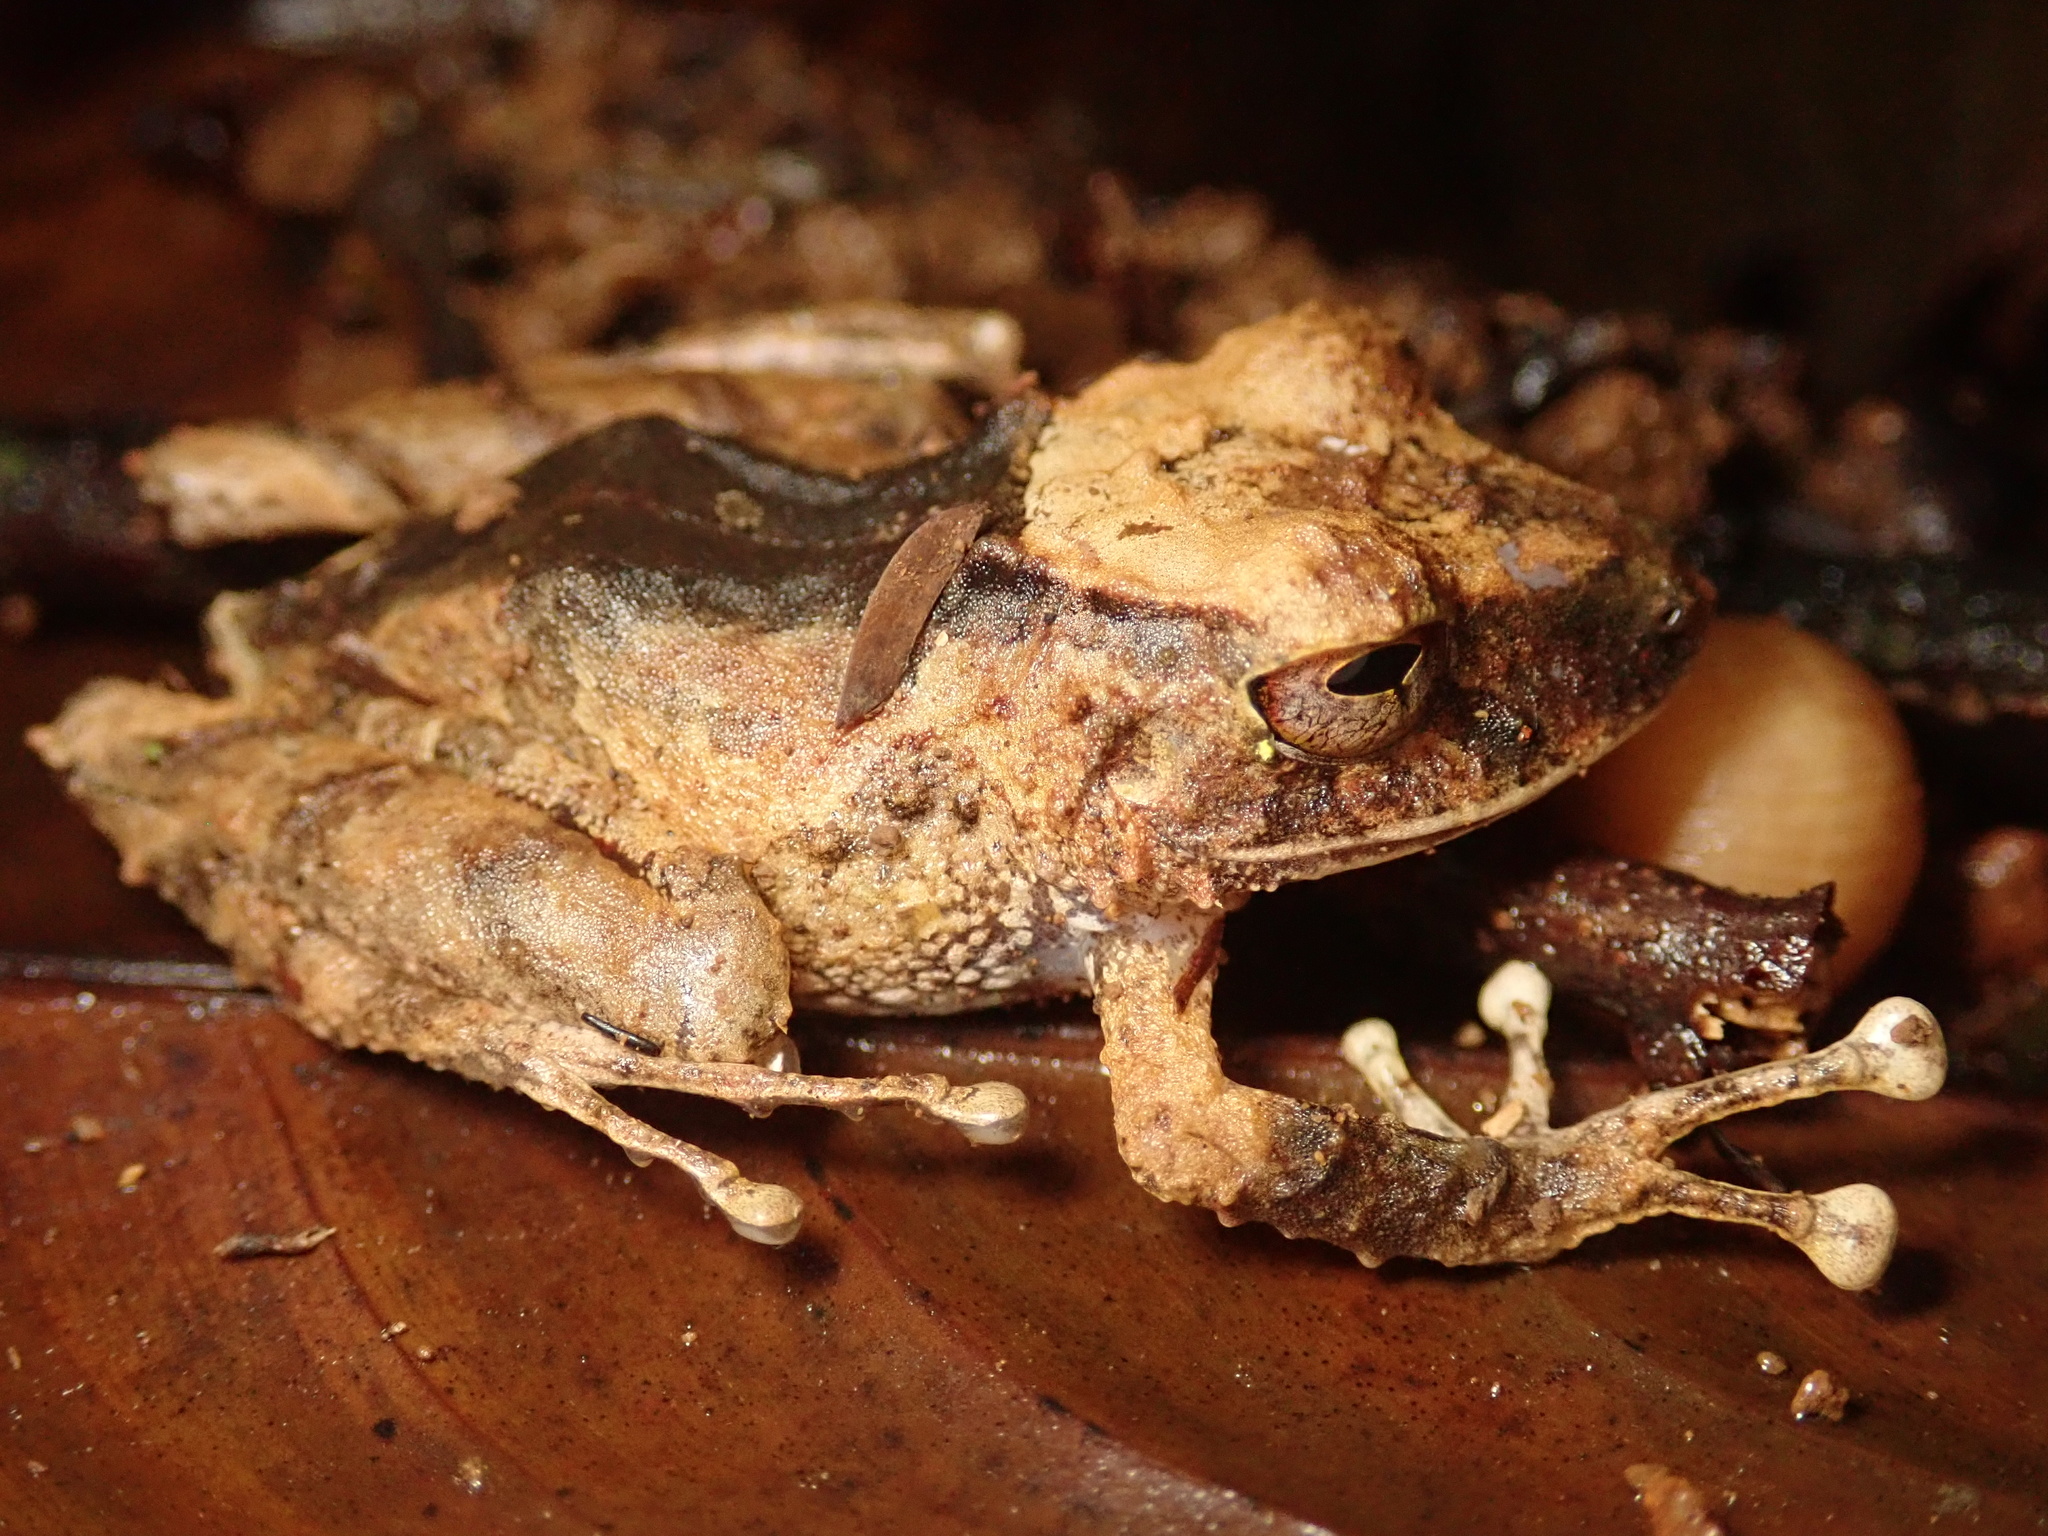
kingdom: Animalia
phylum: Chordata
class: Amphibia
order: Anura
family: Craugastoridae
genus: Pristimantis
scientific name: Pristimantis cerasinus
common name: Limon robber frog
